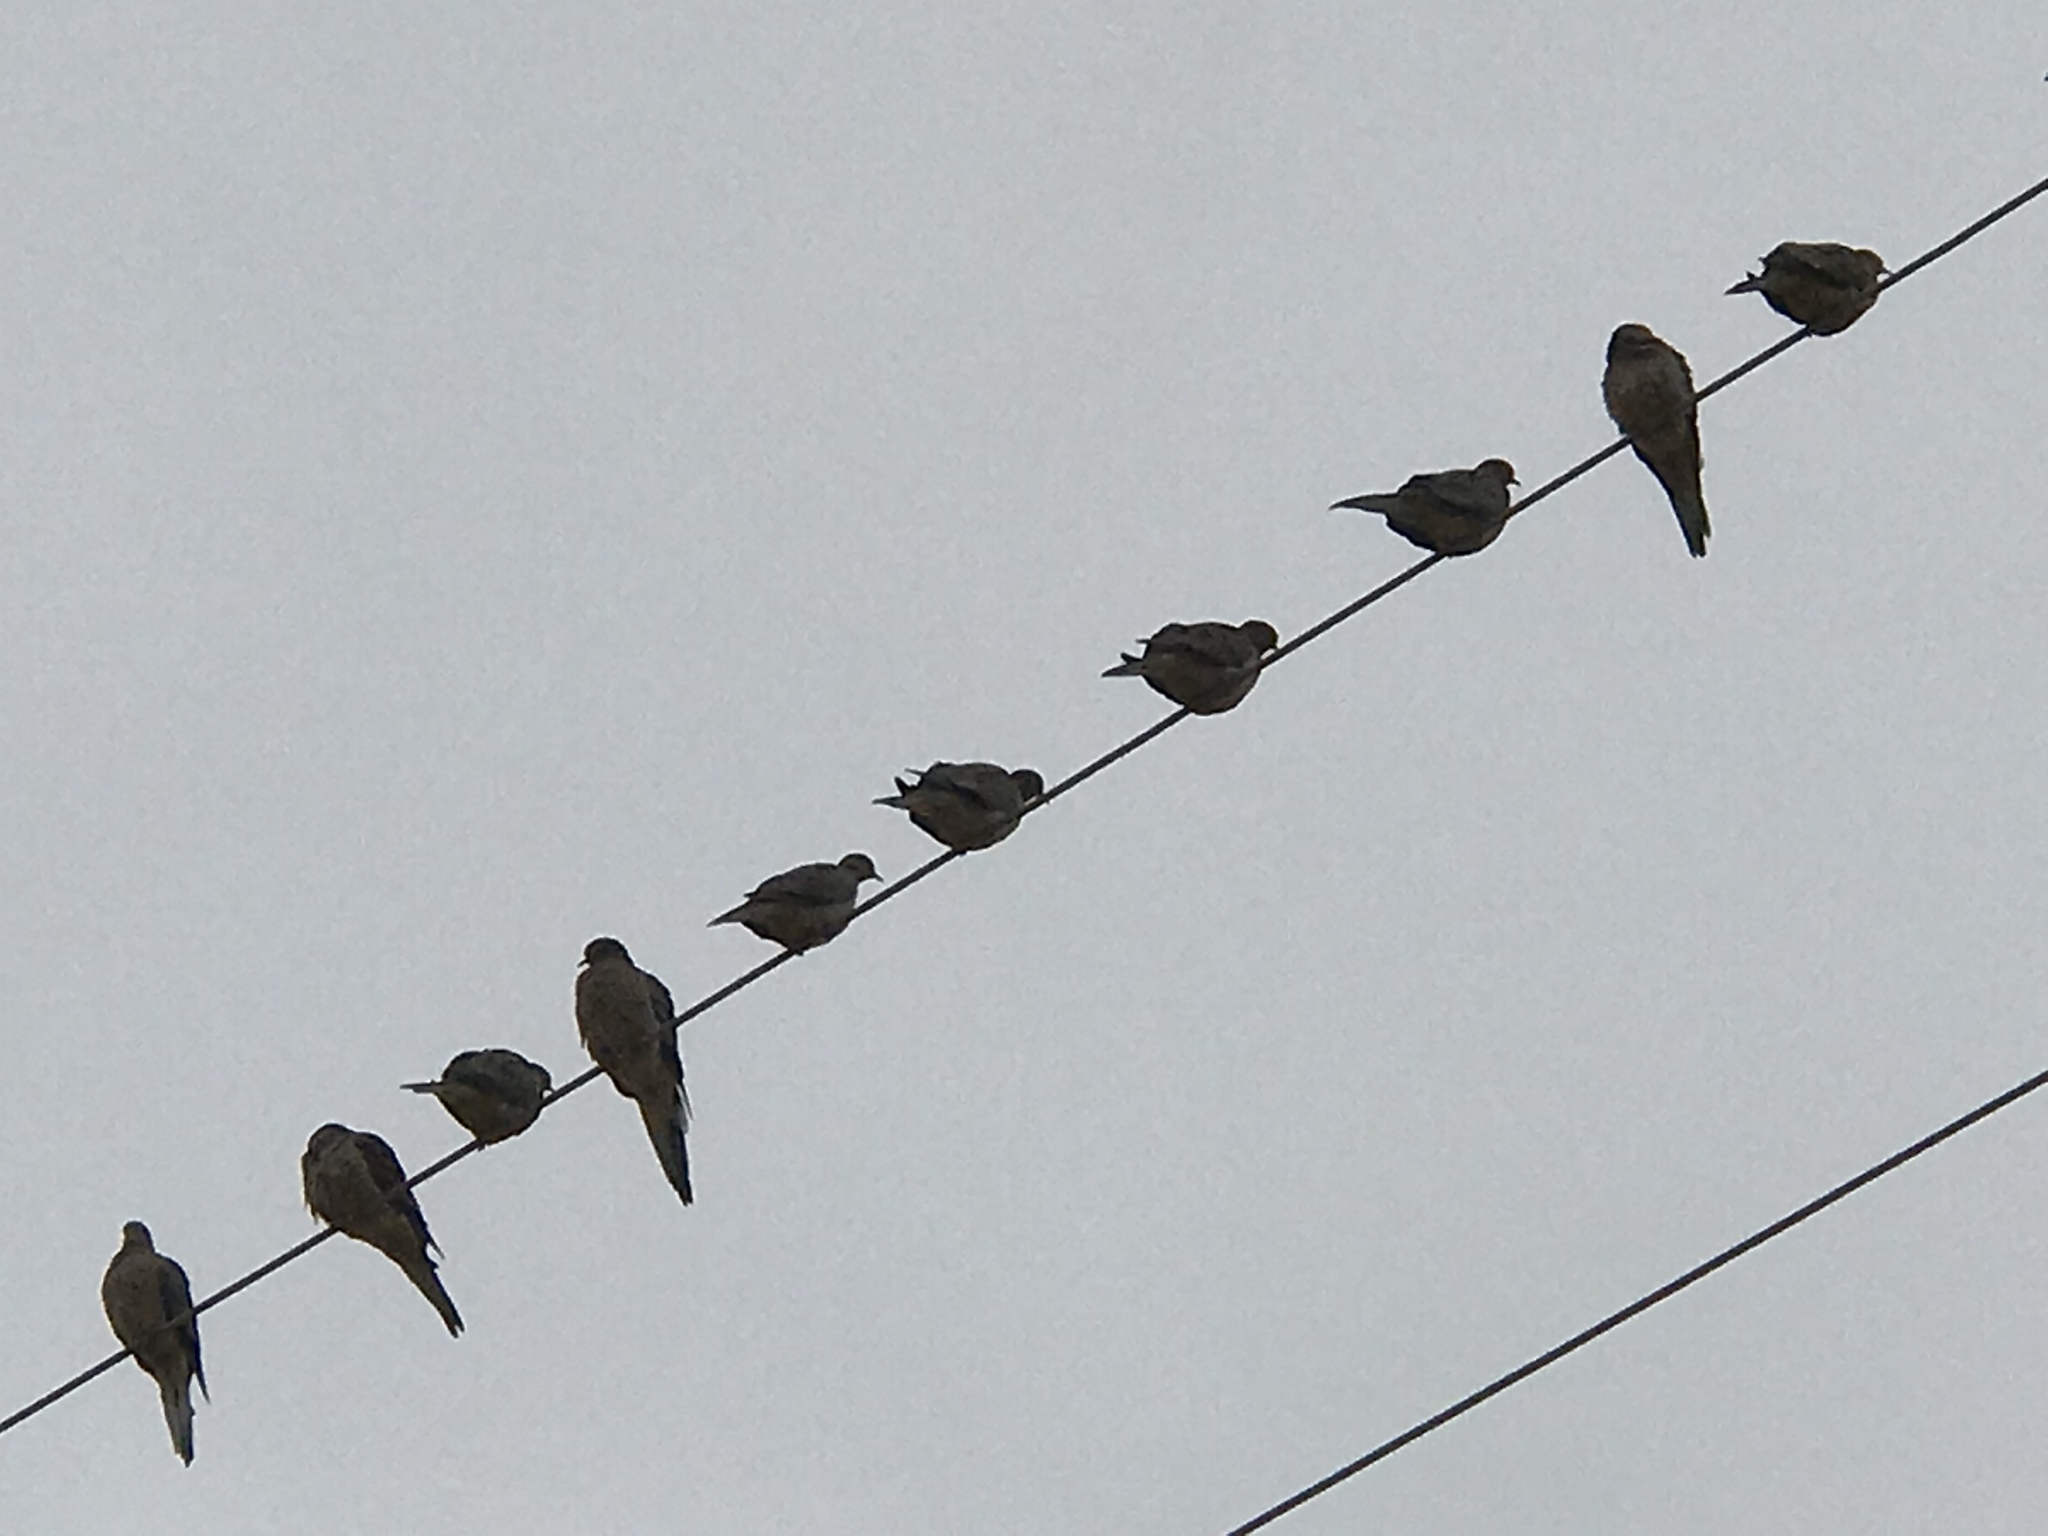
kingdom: Animalia
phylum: Chordata
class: Aves
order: Columbiformes
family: Columbidae
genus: Zenaida
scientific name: Zenaida macroura
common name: Mourning dove
